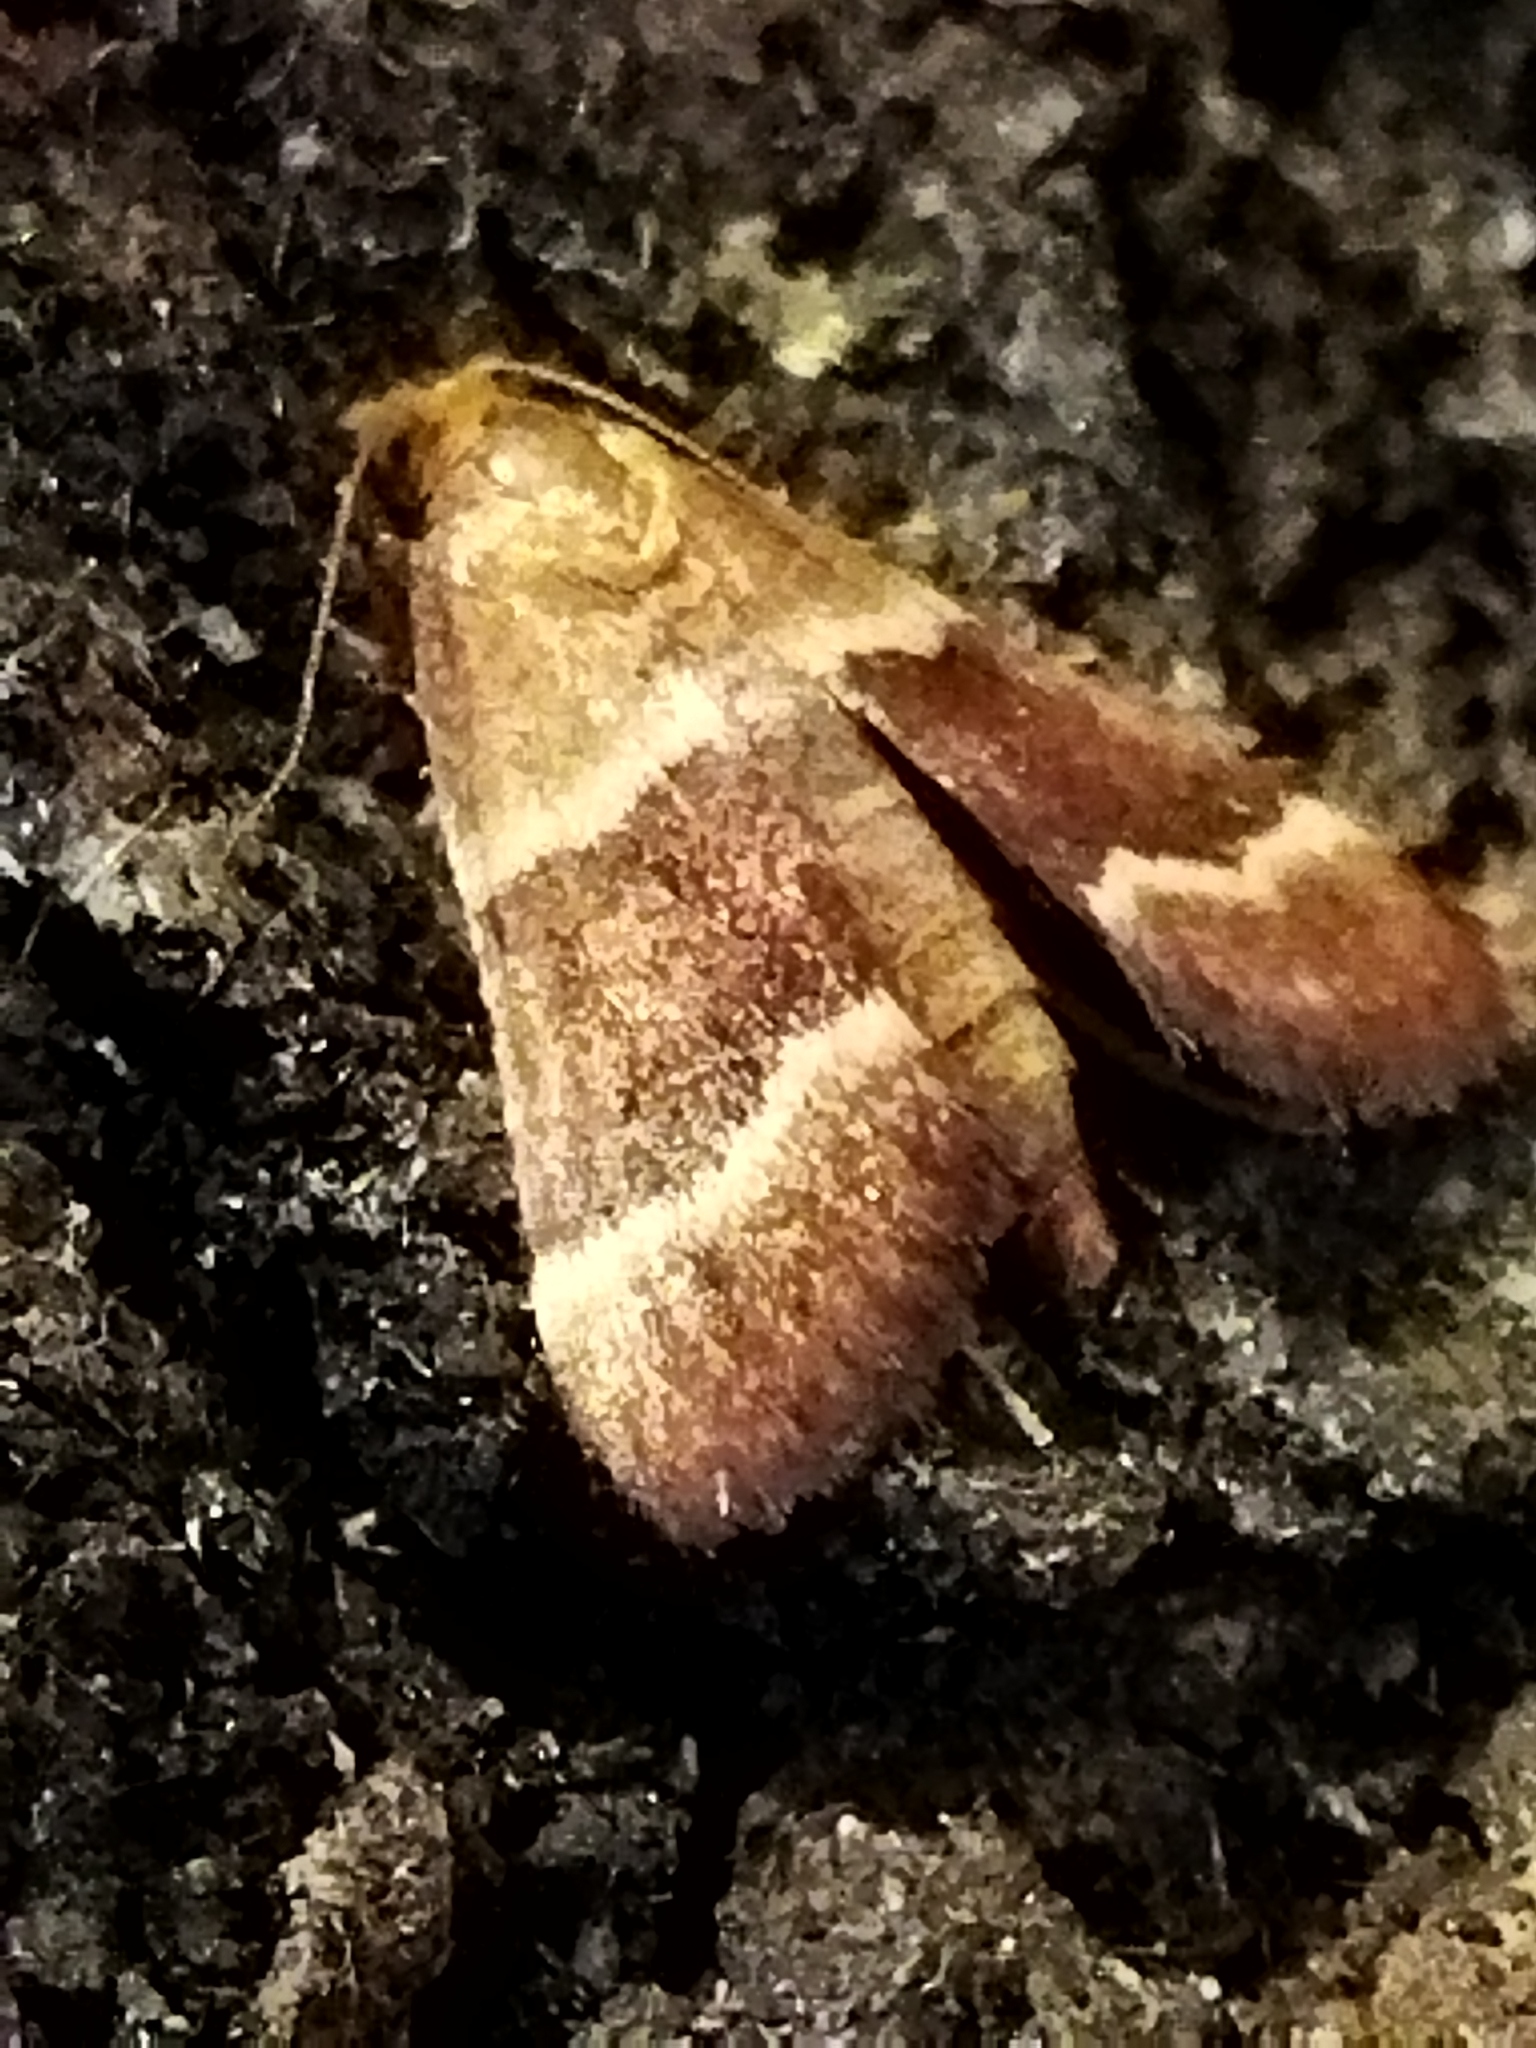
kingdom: Animalia
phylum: Arthropoda
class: Insecta
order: Lepidoptera
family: Pyralidae
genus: Stemmatophora
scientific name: Stemmatophora combustalis
